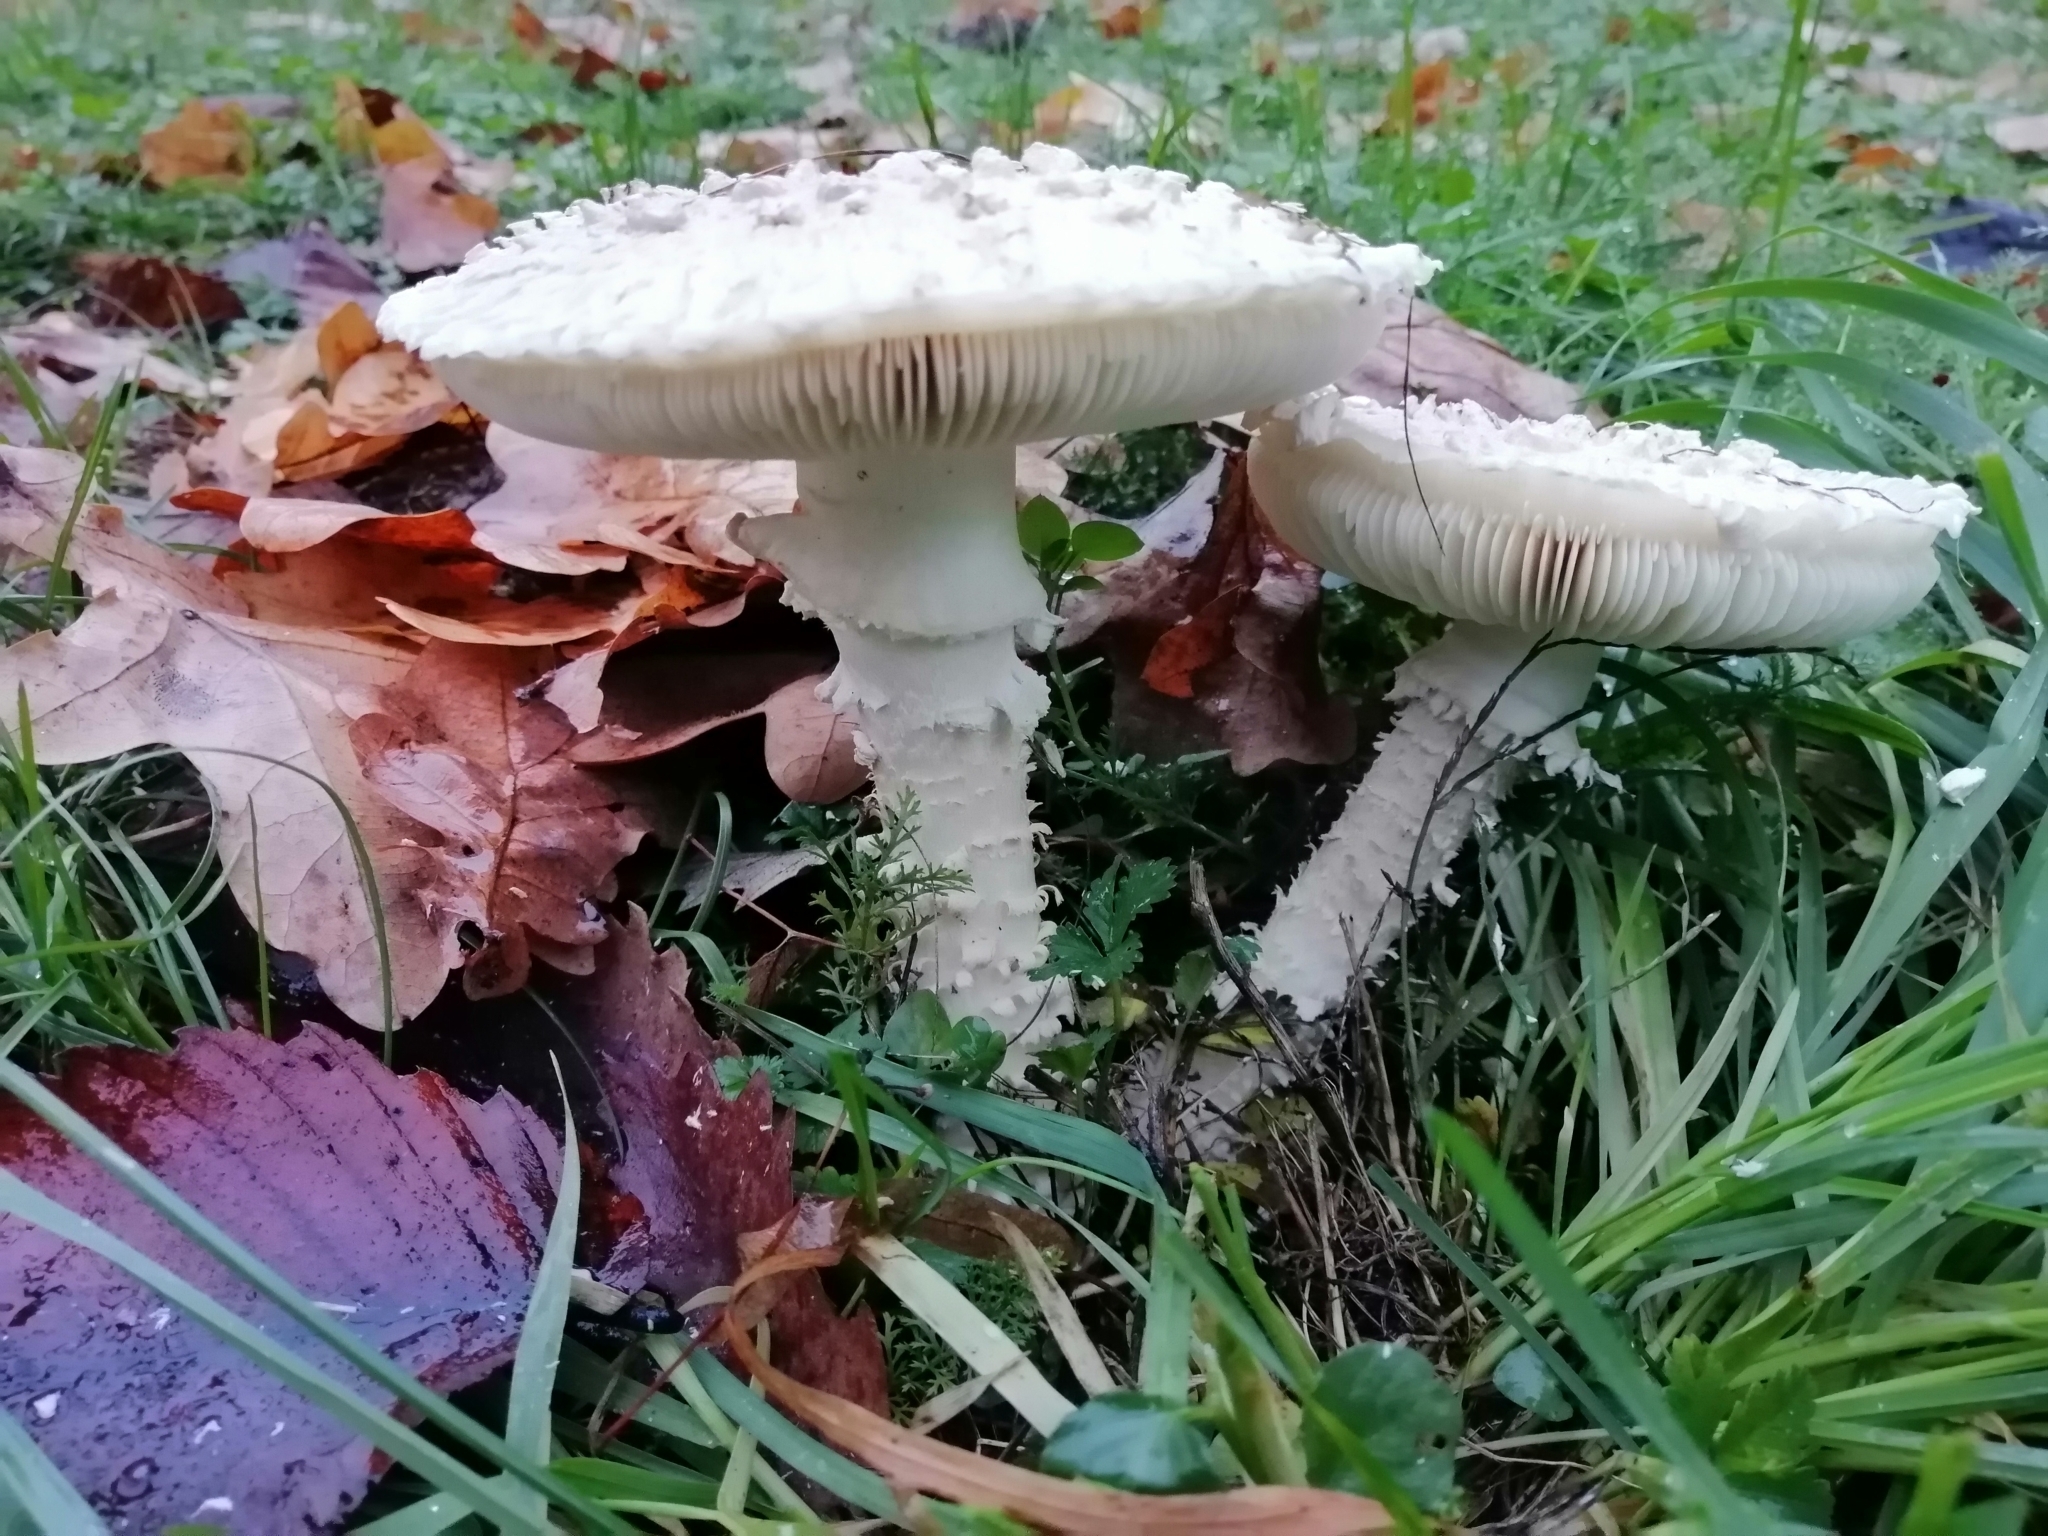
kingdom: Fungi
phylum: Basidiomycota
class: Agaricomycetes
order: Agaricales
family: Amanitaceae
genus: Amanita
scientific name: Amanita vittadinii
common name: Barefoot amanita
